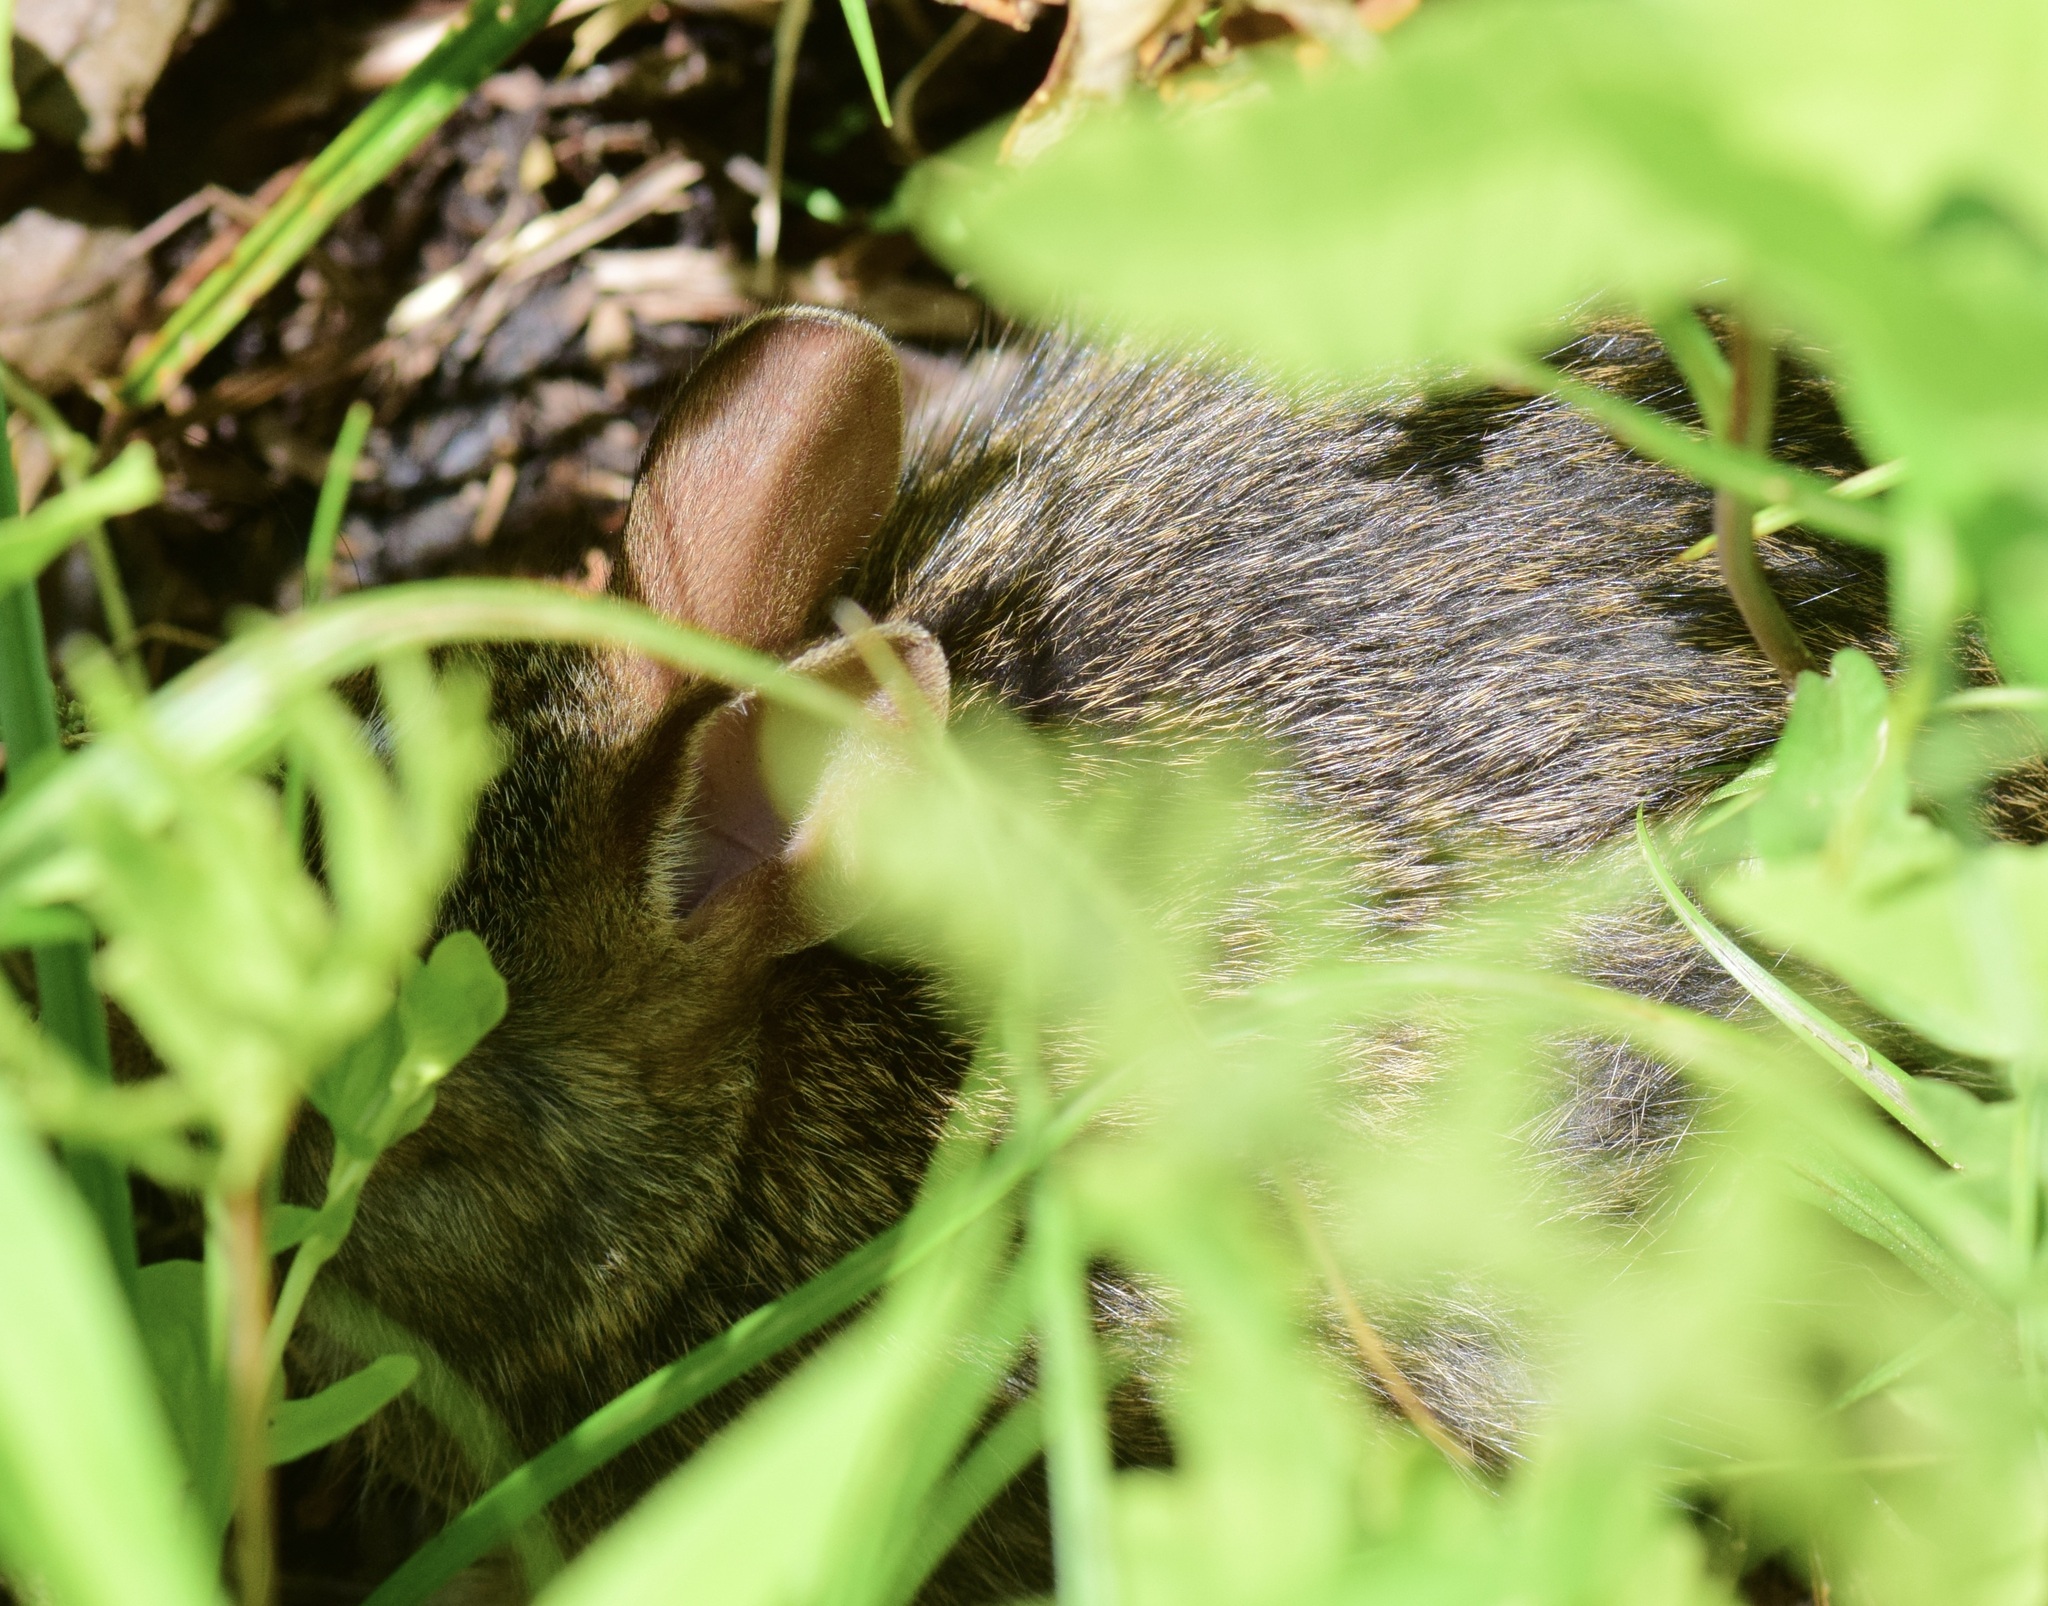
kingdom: Animalia
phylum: Chordata
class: Mammalia
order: Lagomorpha
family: Leporidae
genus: Sylvilagus
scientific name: Sylvilagus floridanus
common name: Eastern cottontail
